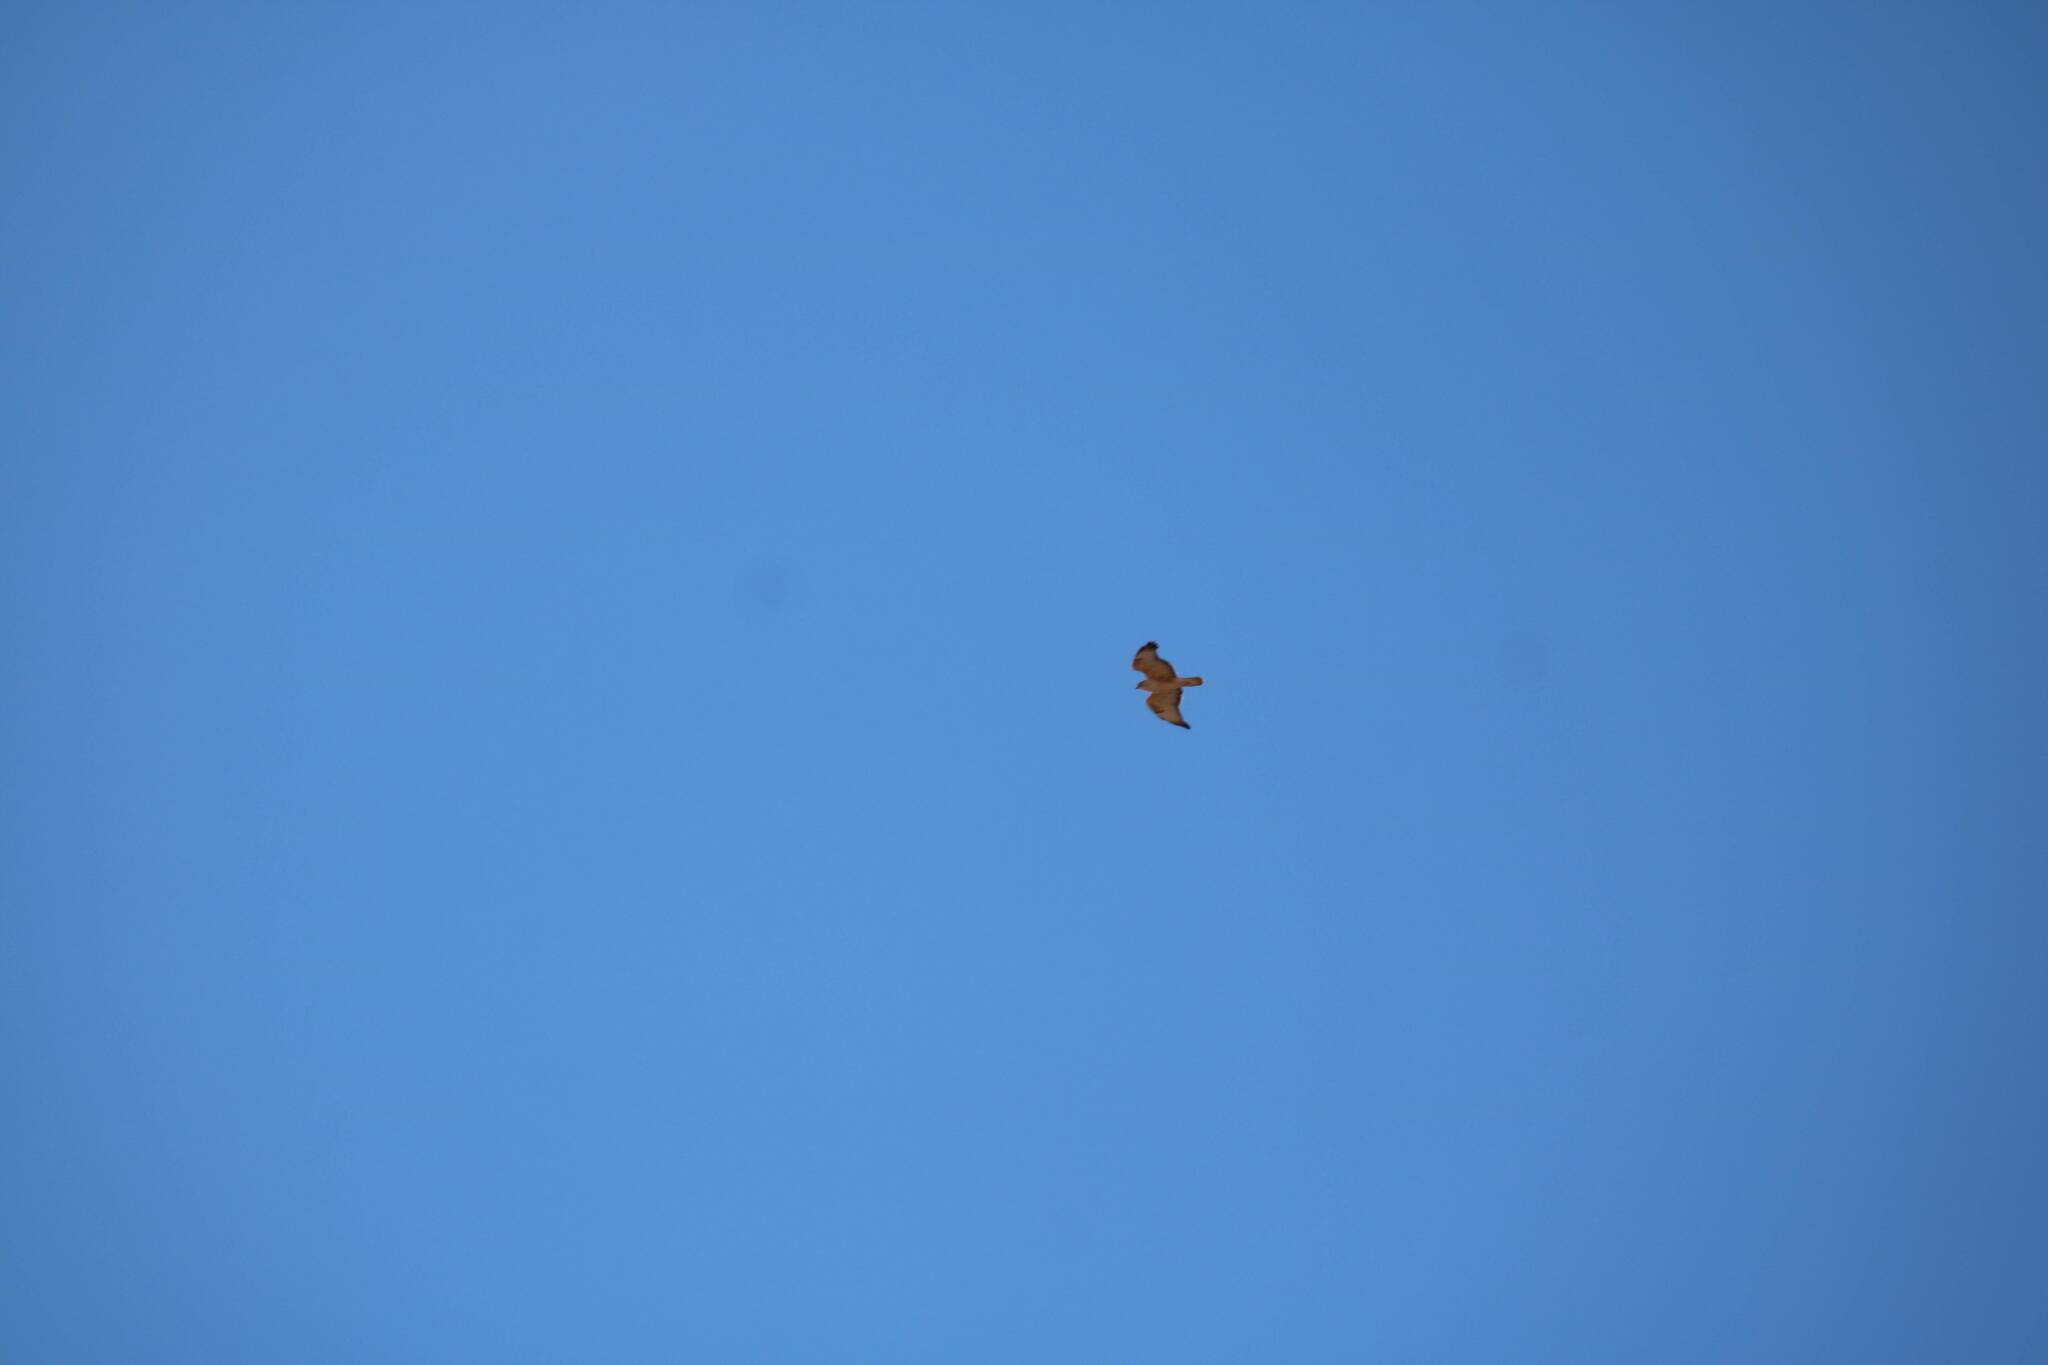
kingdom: Animalia
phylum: Chordata
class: Aves
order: Accipitriformes
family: Accipitridae
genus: Buteo
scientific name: Buteo rufinus
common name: Long-legged buzzard
